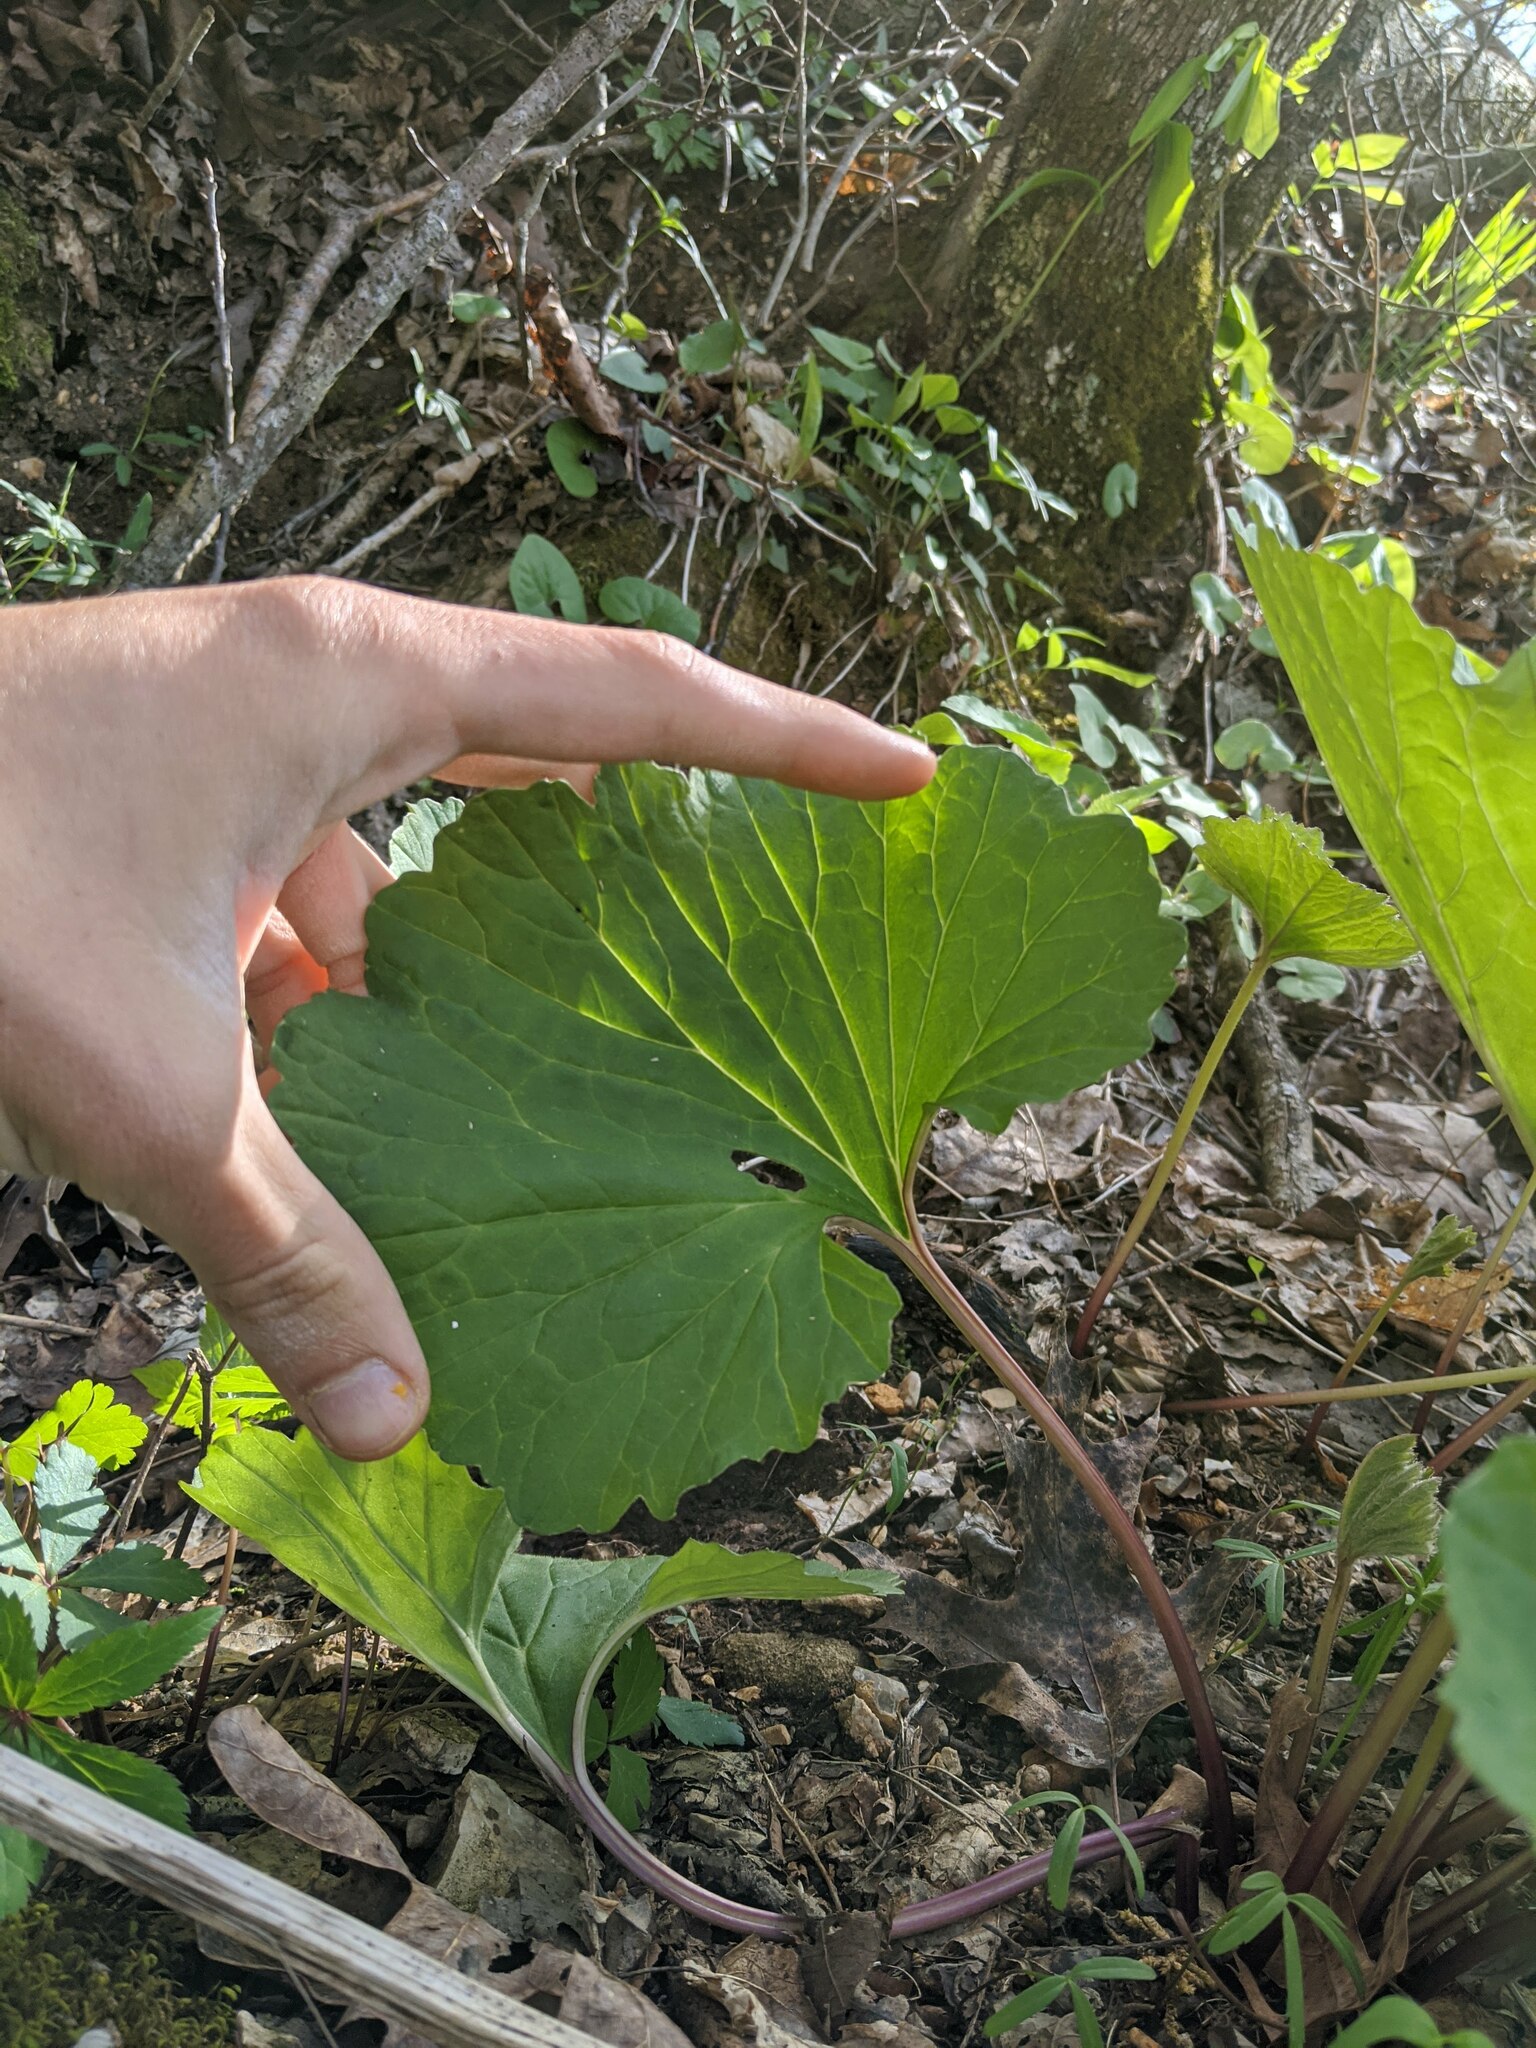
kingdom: Plantae
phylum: Tracheophyta
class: Magnoliopsida
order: Asterales
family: Asteraceae
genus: Arnoglossum
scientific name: Arnoglossum reniforme
